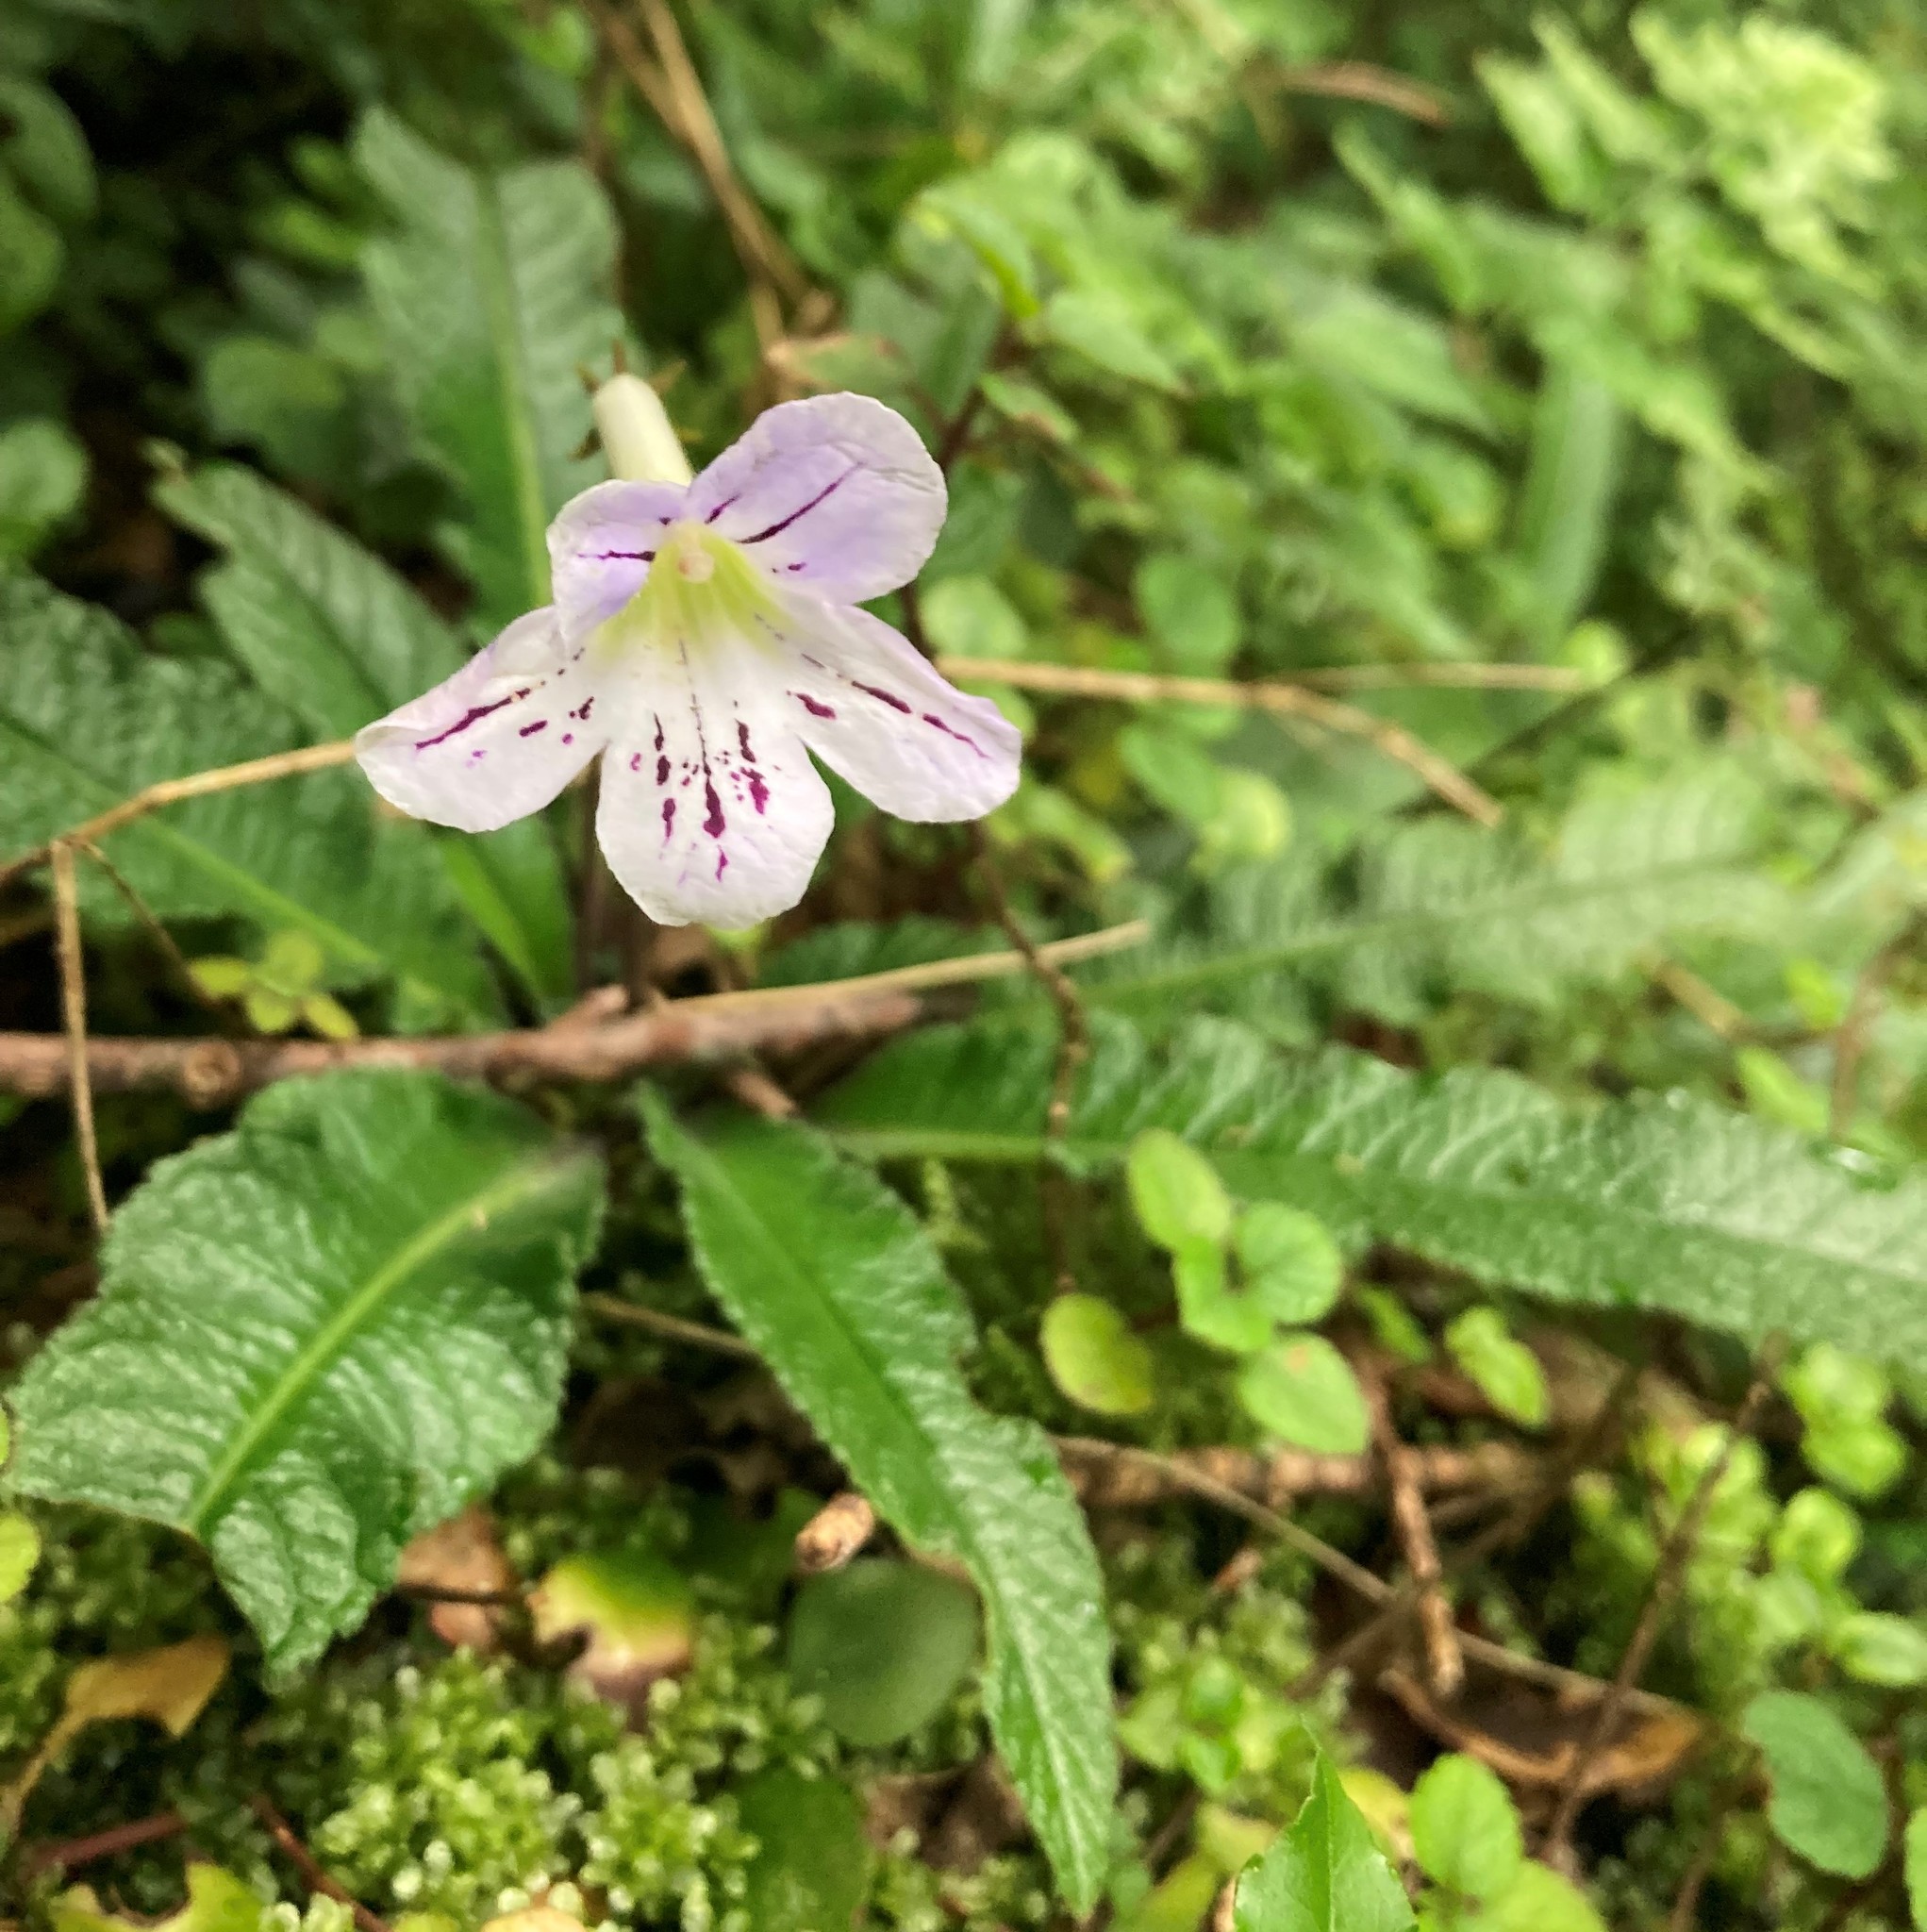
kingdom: Plantae
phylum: Tracheophyta
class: Magnoliopsida
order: Lamiales
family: Gesneriaceae
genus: Streptocarpus
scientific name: Streptocarpus gardenii
